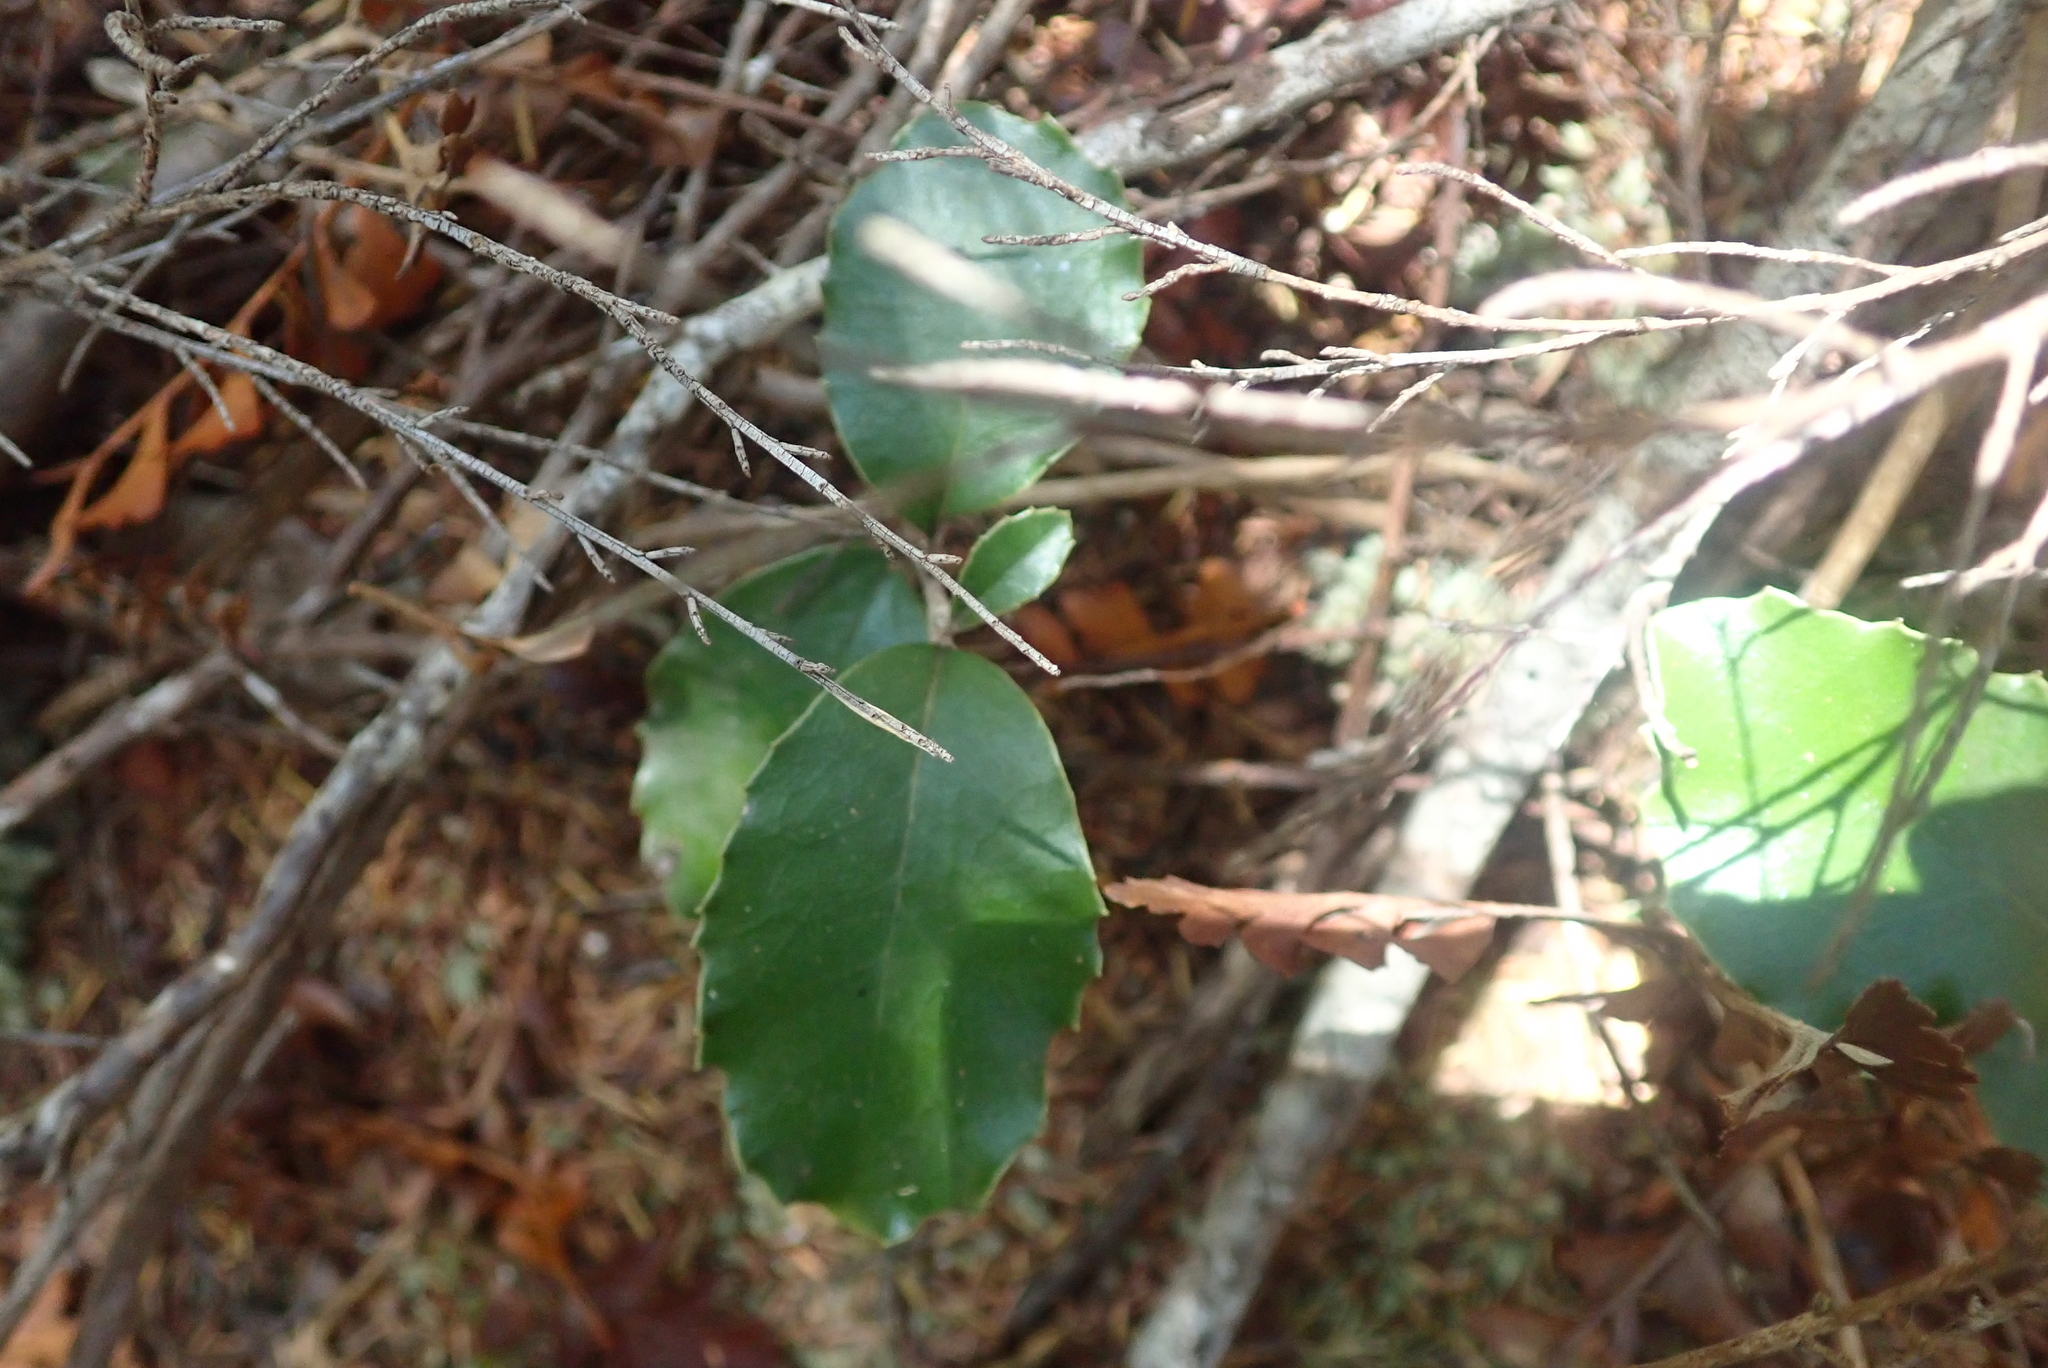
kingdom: Plantae
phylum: Tracheophyta
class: Magnoliopsida
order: Asterales
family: Asteraceae
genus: Olearia
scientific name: Olearia furfuracea
